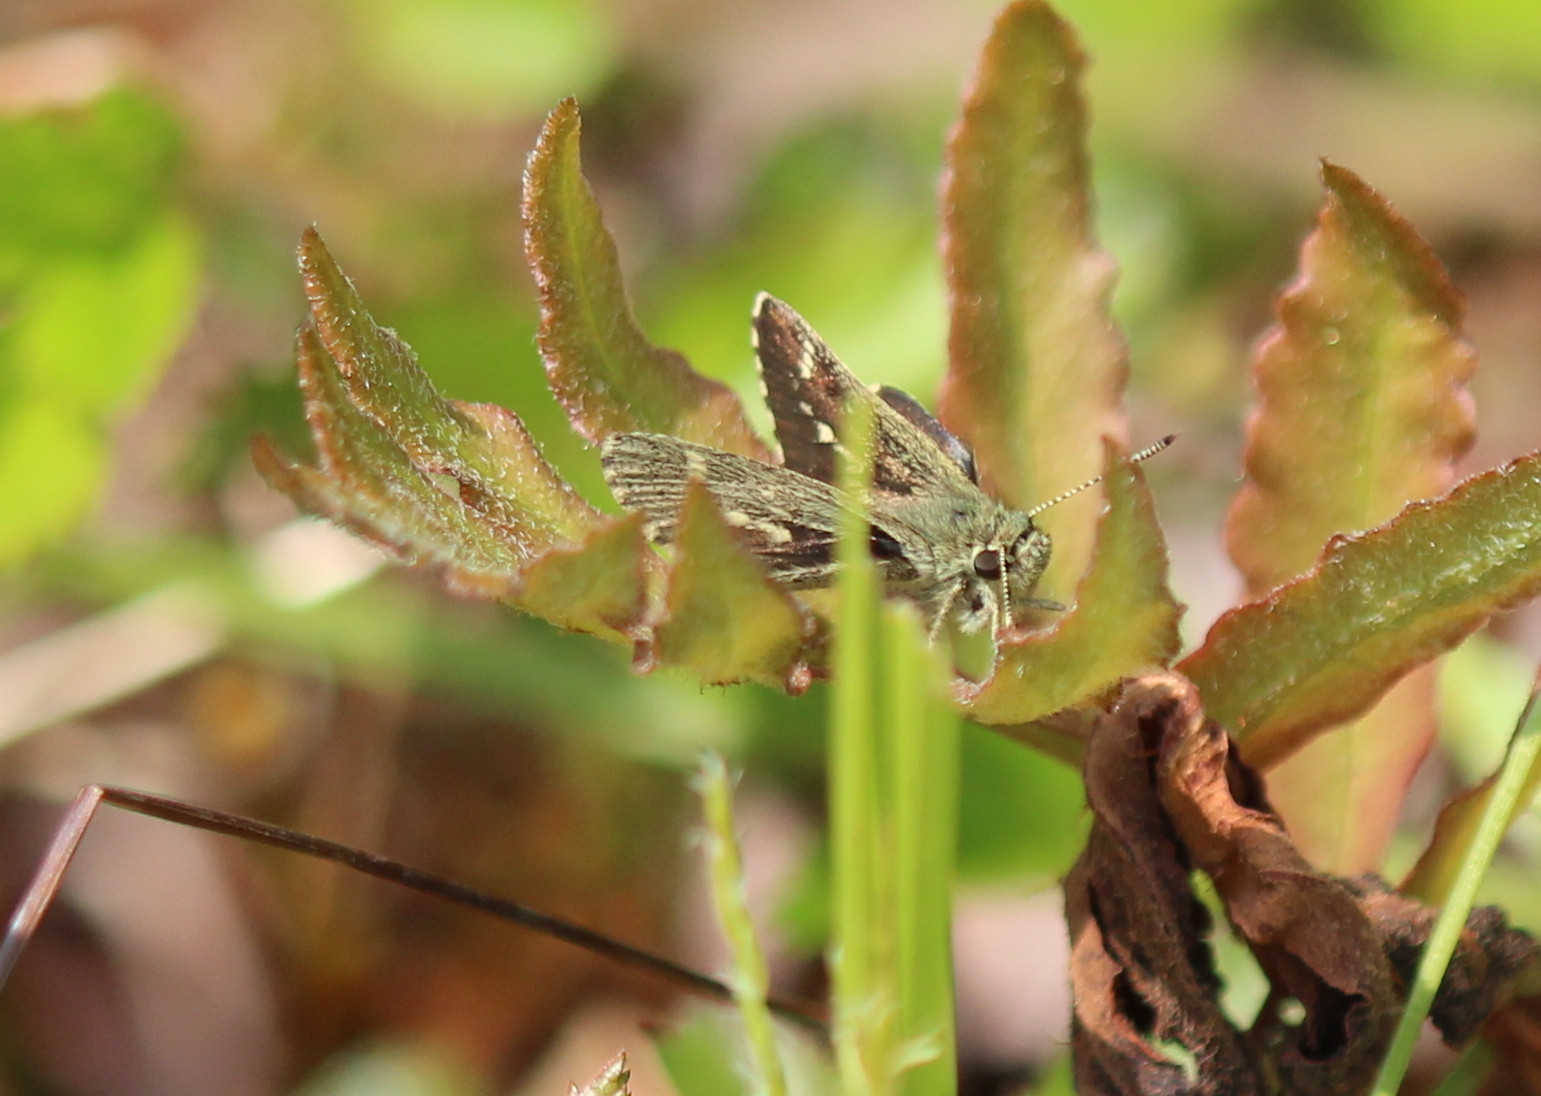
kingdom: Animalia
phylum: Arthropoda
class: Insecta
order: Lepidoptera
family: Hesperiidae
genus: Mastor
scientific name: Mastor hegon
